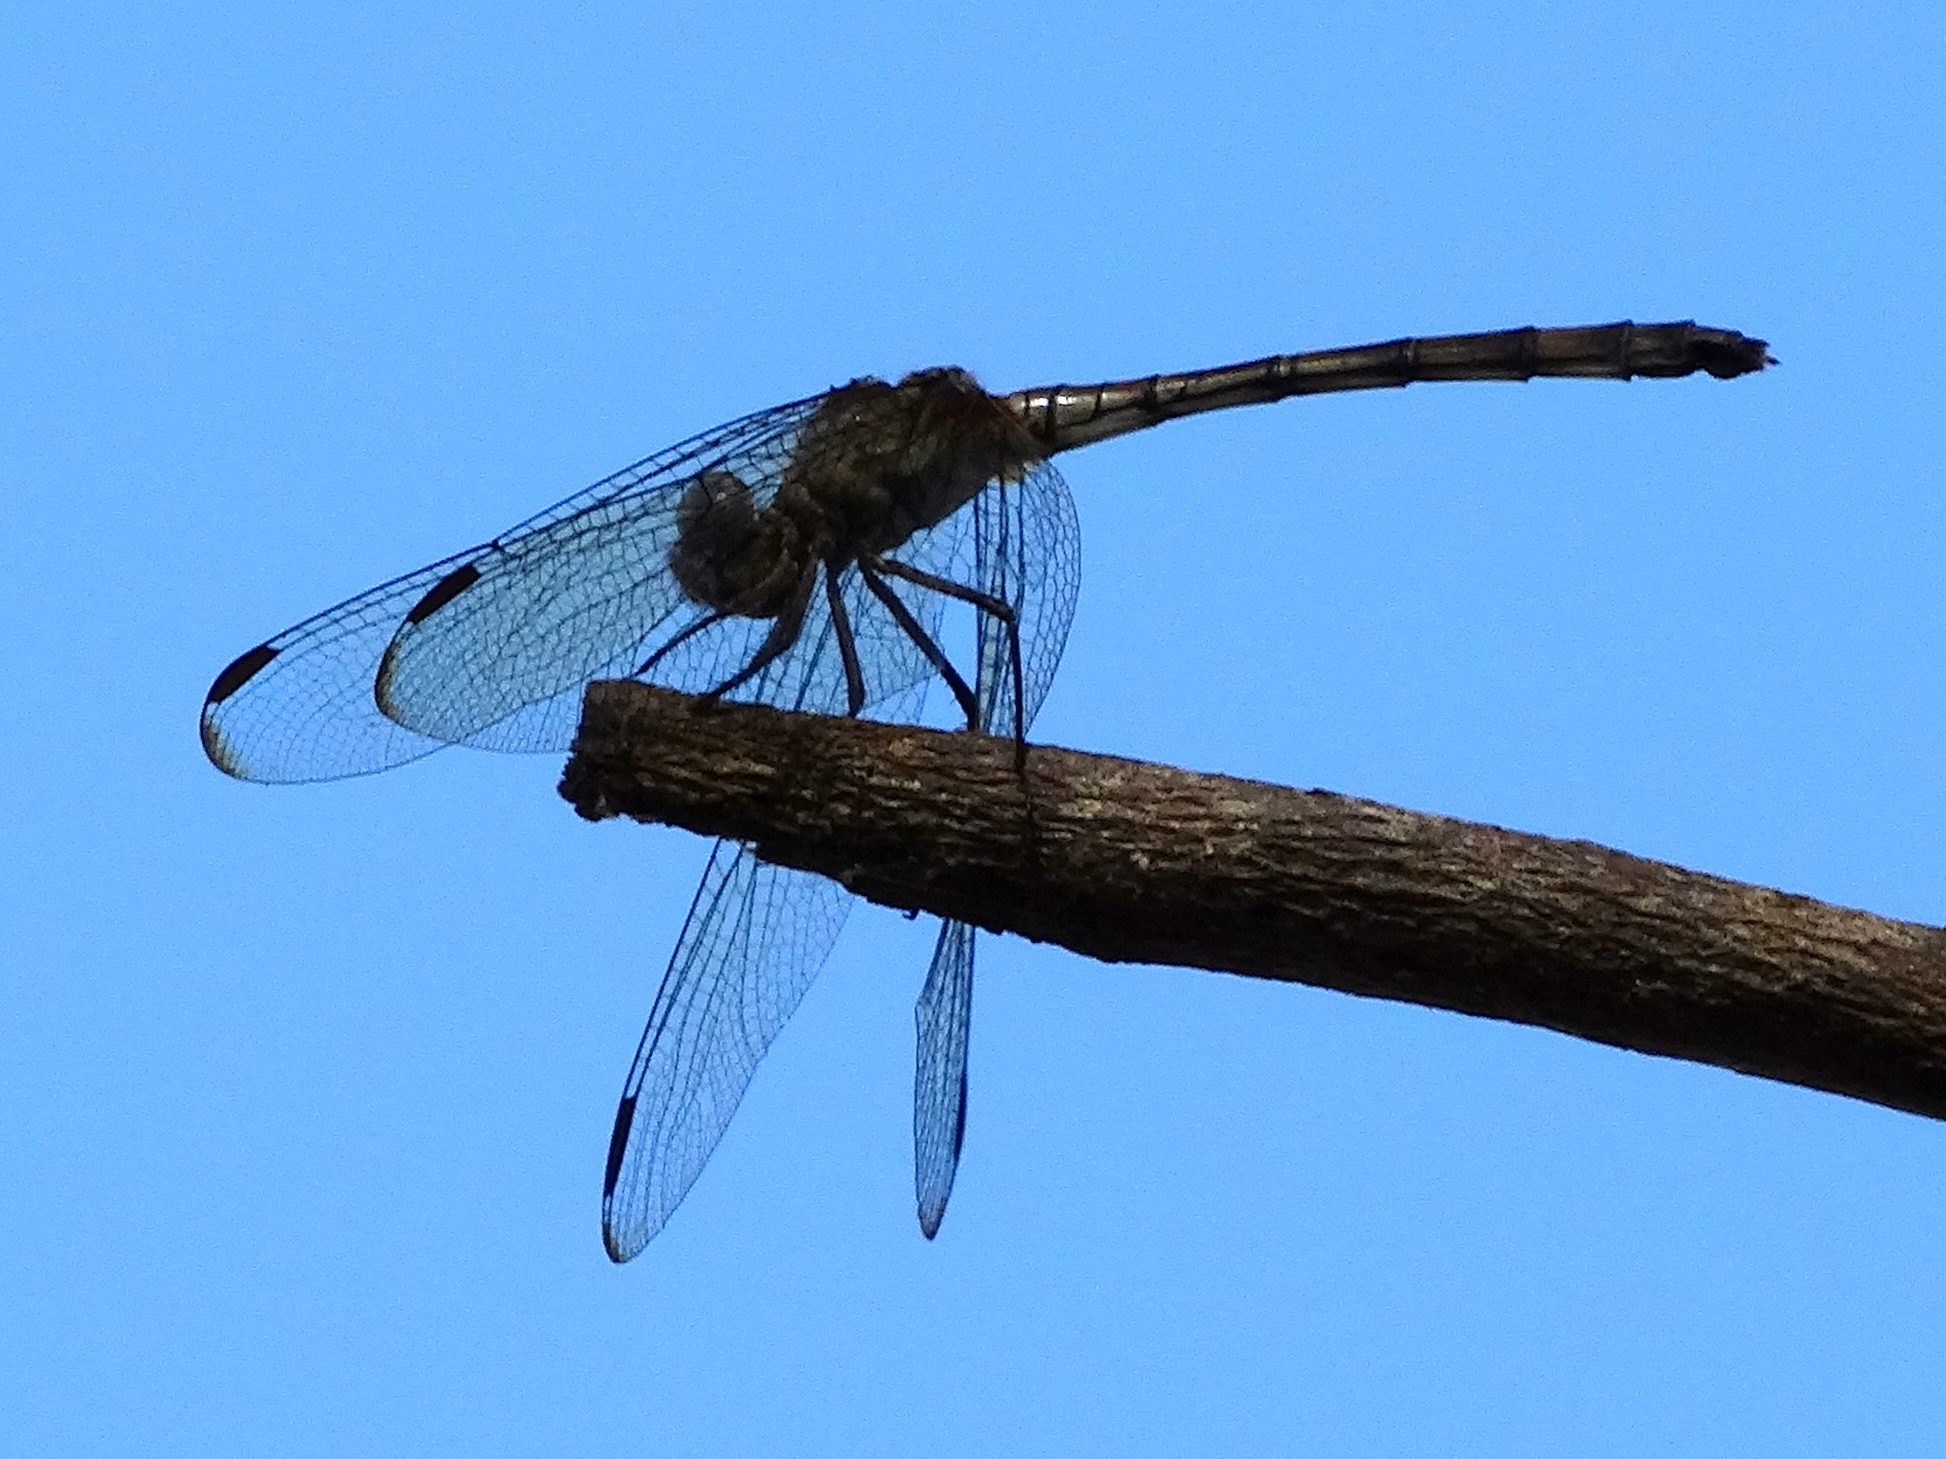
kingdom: Animalia
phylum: Arthropoda
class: Insecta
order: Odonata
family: Libellulidae
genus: Dythemis
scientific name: Dythemis nigrescens
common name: Black setwing
